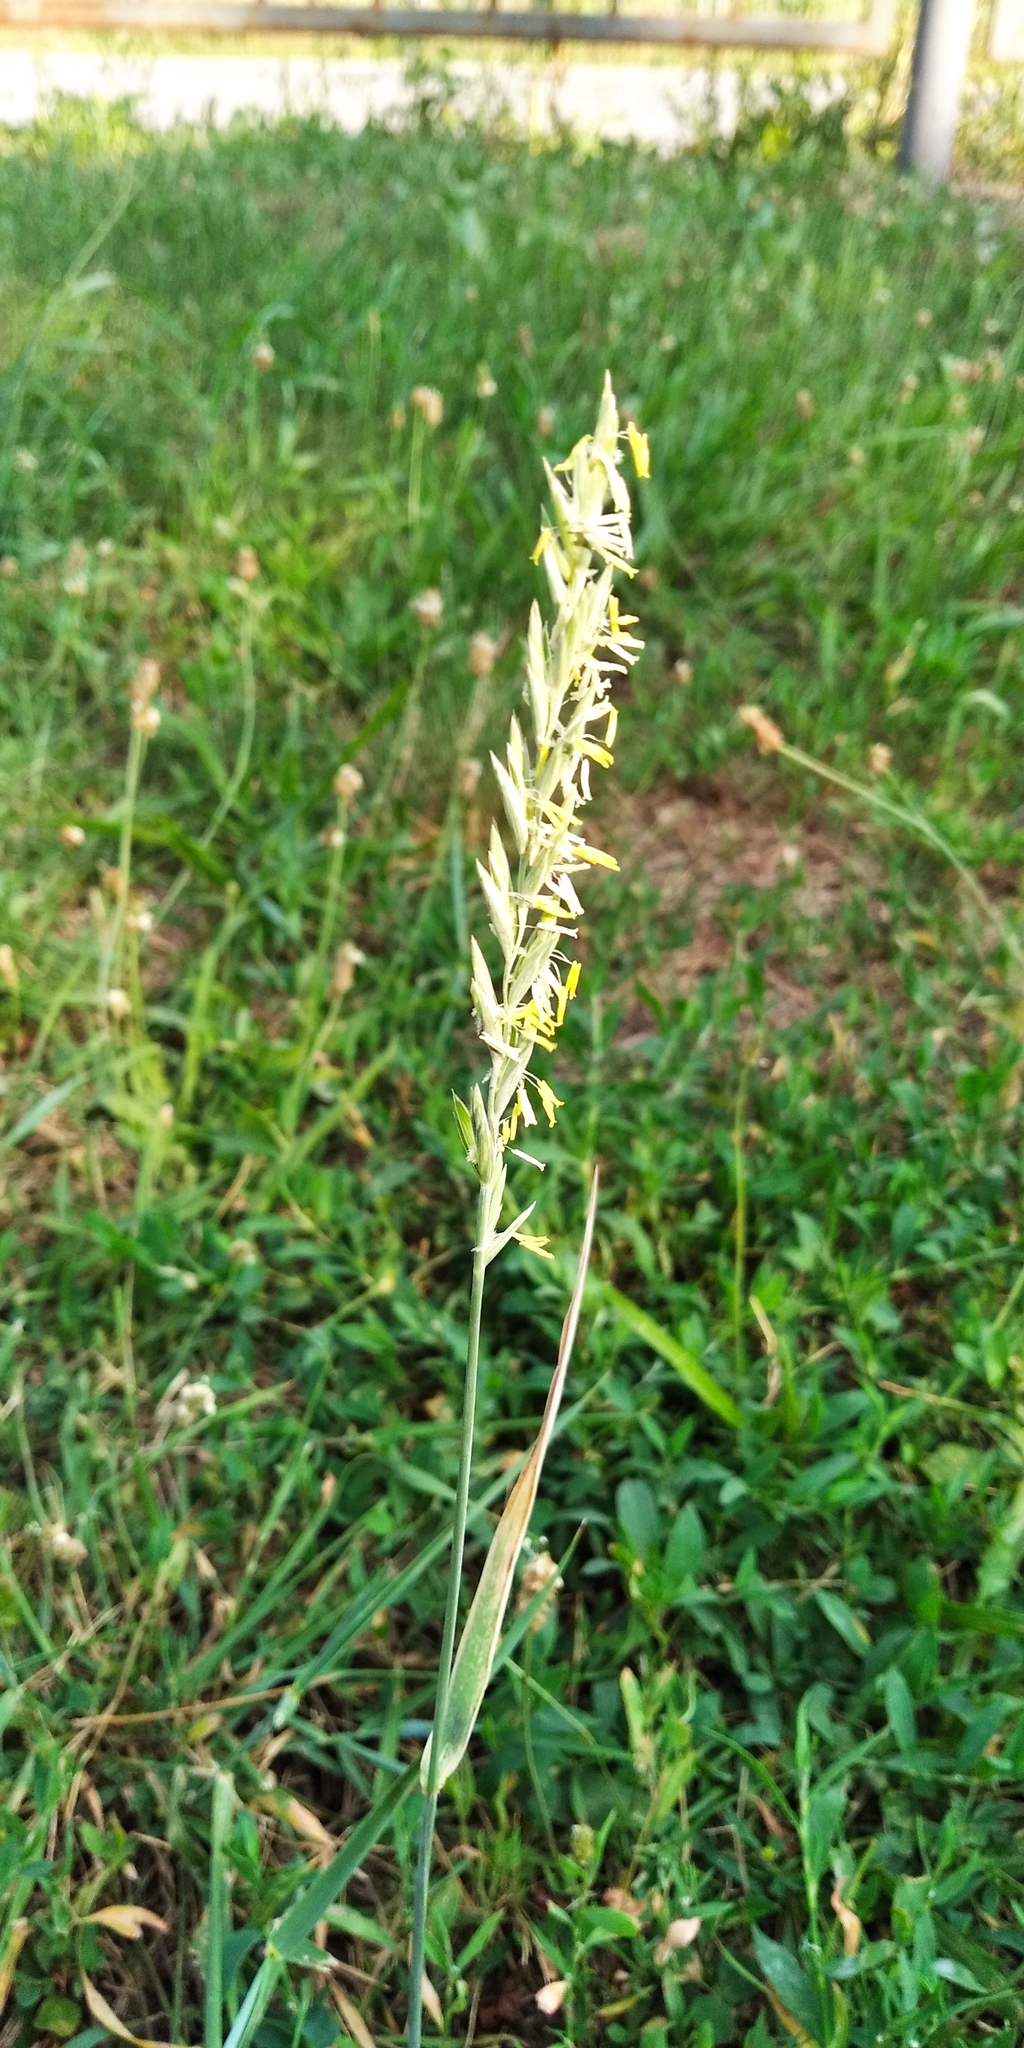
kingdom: Plantae
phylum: Tracheophyta
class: Liliopsida
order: Poales
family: Poaceae
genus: Elymus
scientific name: Elymus repens
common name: Quackgrass
